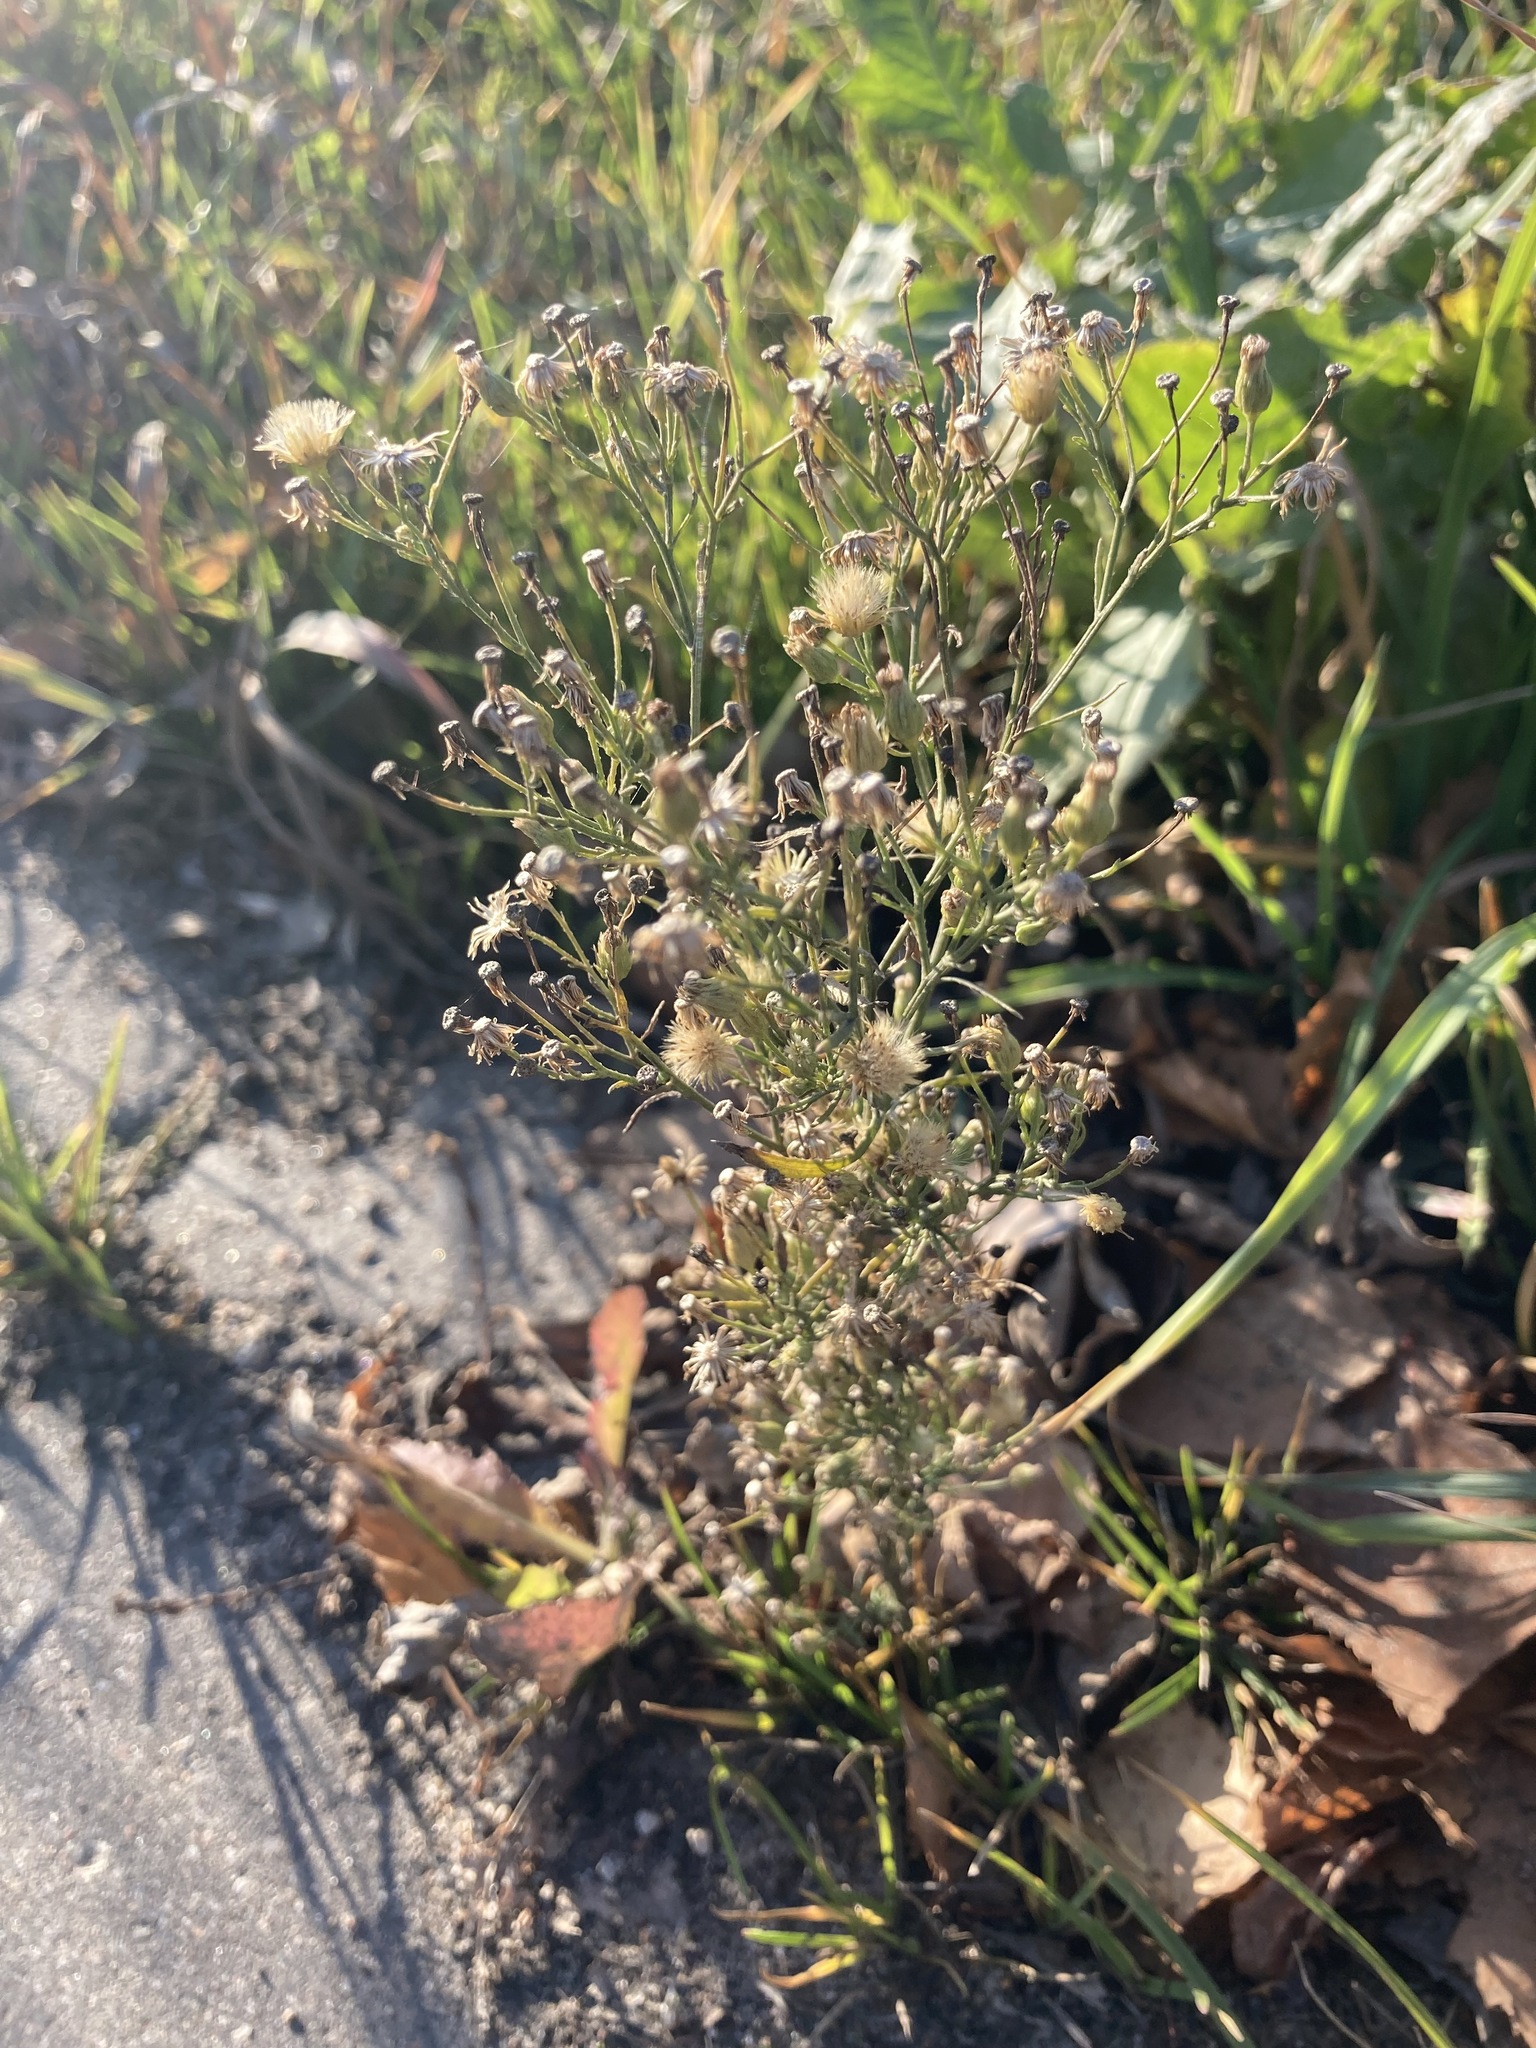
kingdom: Plantae
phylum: Tracheophyta
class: Magnoliopsida
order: Asterales
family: Asteraceae
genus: Erigeron
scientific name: Erigeron canadensis
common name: Canadian fleabane
